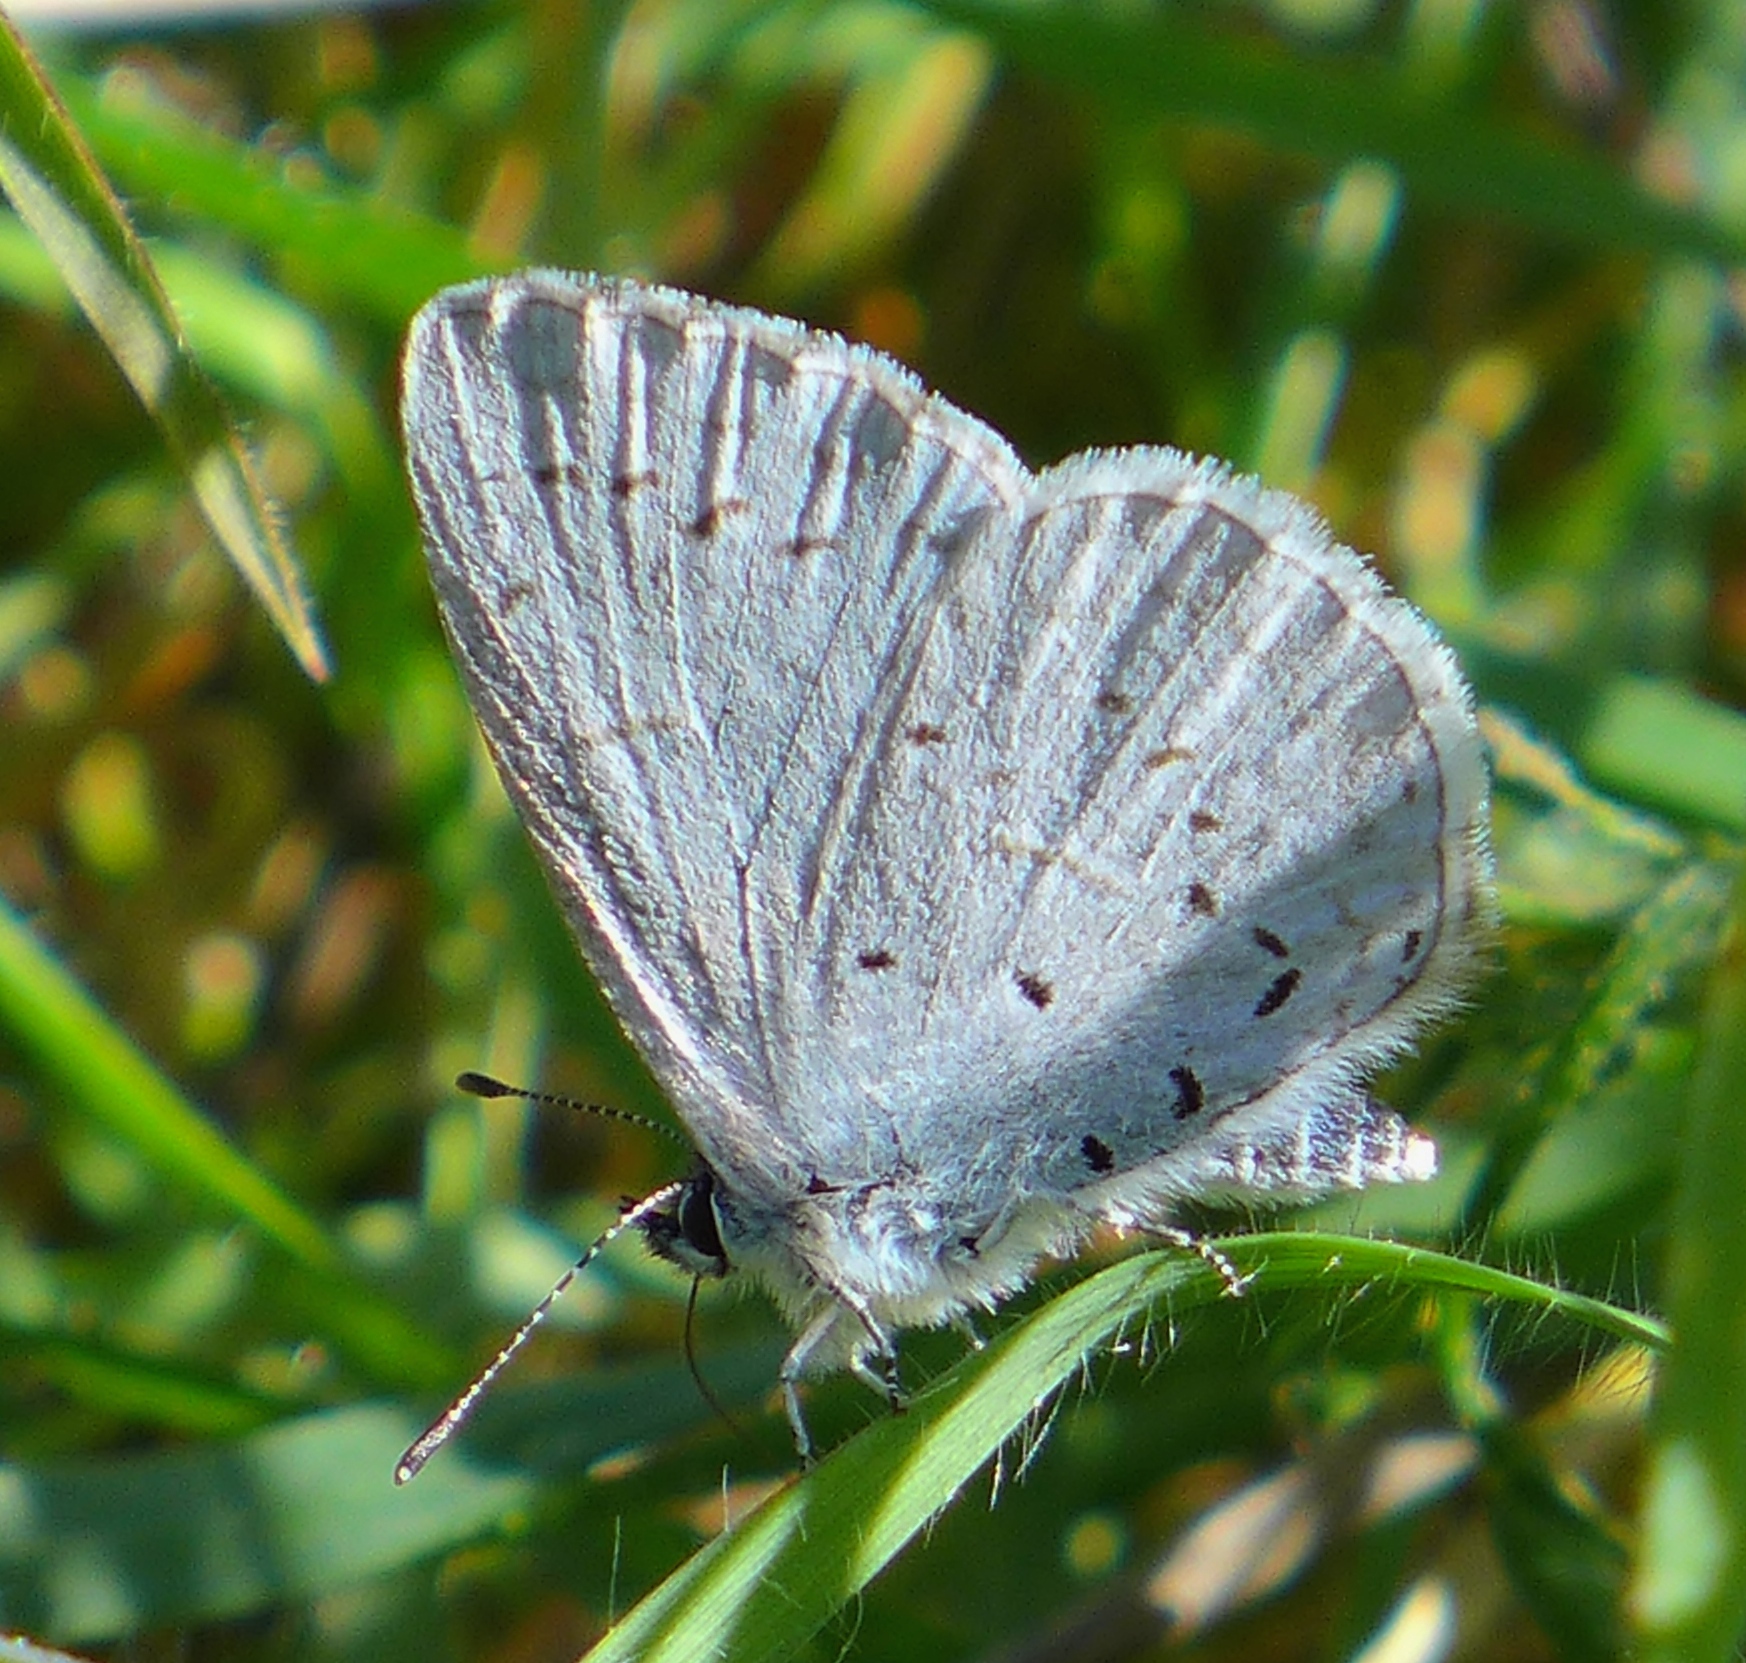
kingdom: Animalia
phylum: Arthropoda
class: Insecta
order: Lepidoptera
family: Lycaenidae
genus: Celastrina
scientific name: Celastrina ladon
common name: Spring azure
